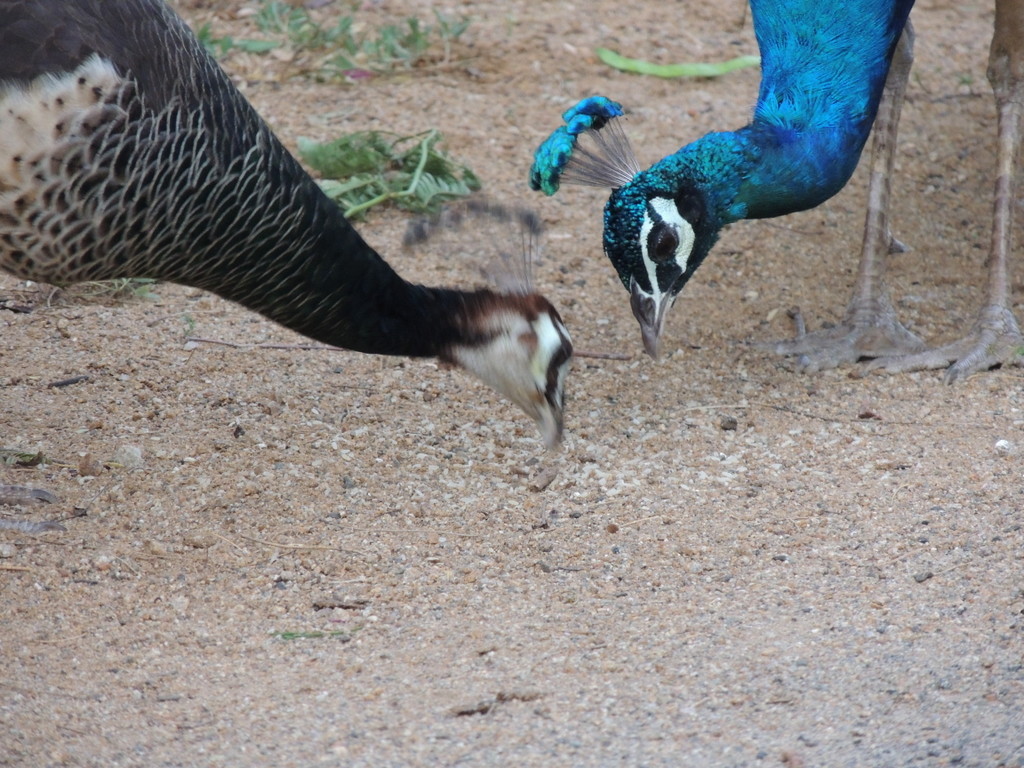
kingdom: Animalia
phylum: Chordata
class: Aves
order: Galliformes
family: Phasianidae
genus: Pavo
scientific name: Pavo cristatus
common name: Indian peafowl
